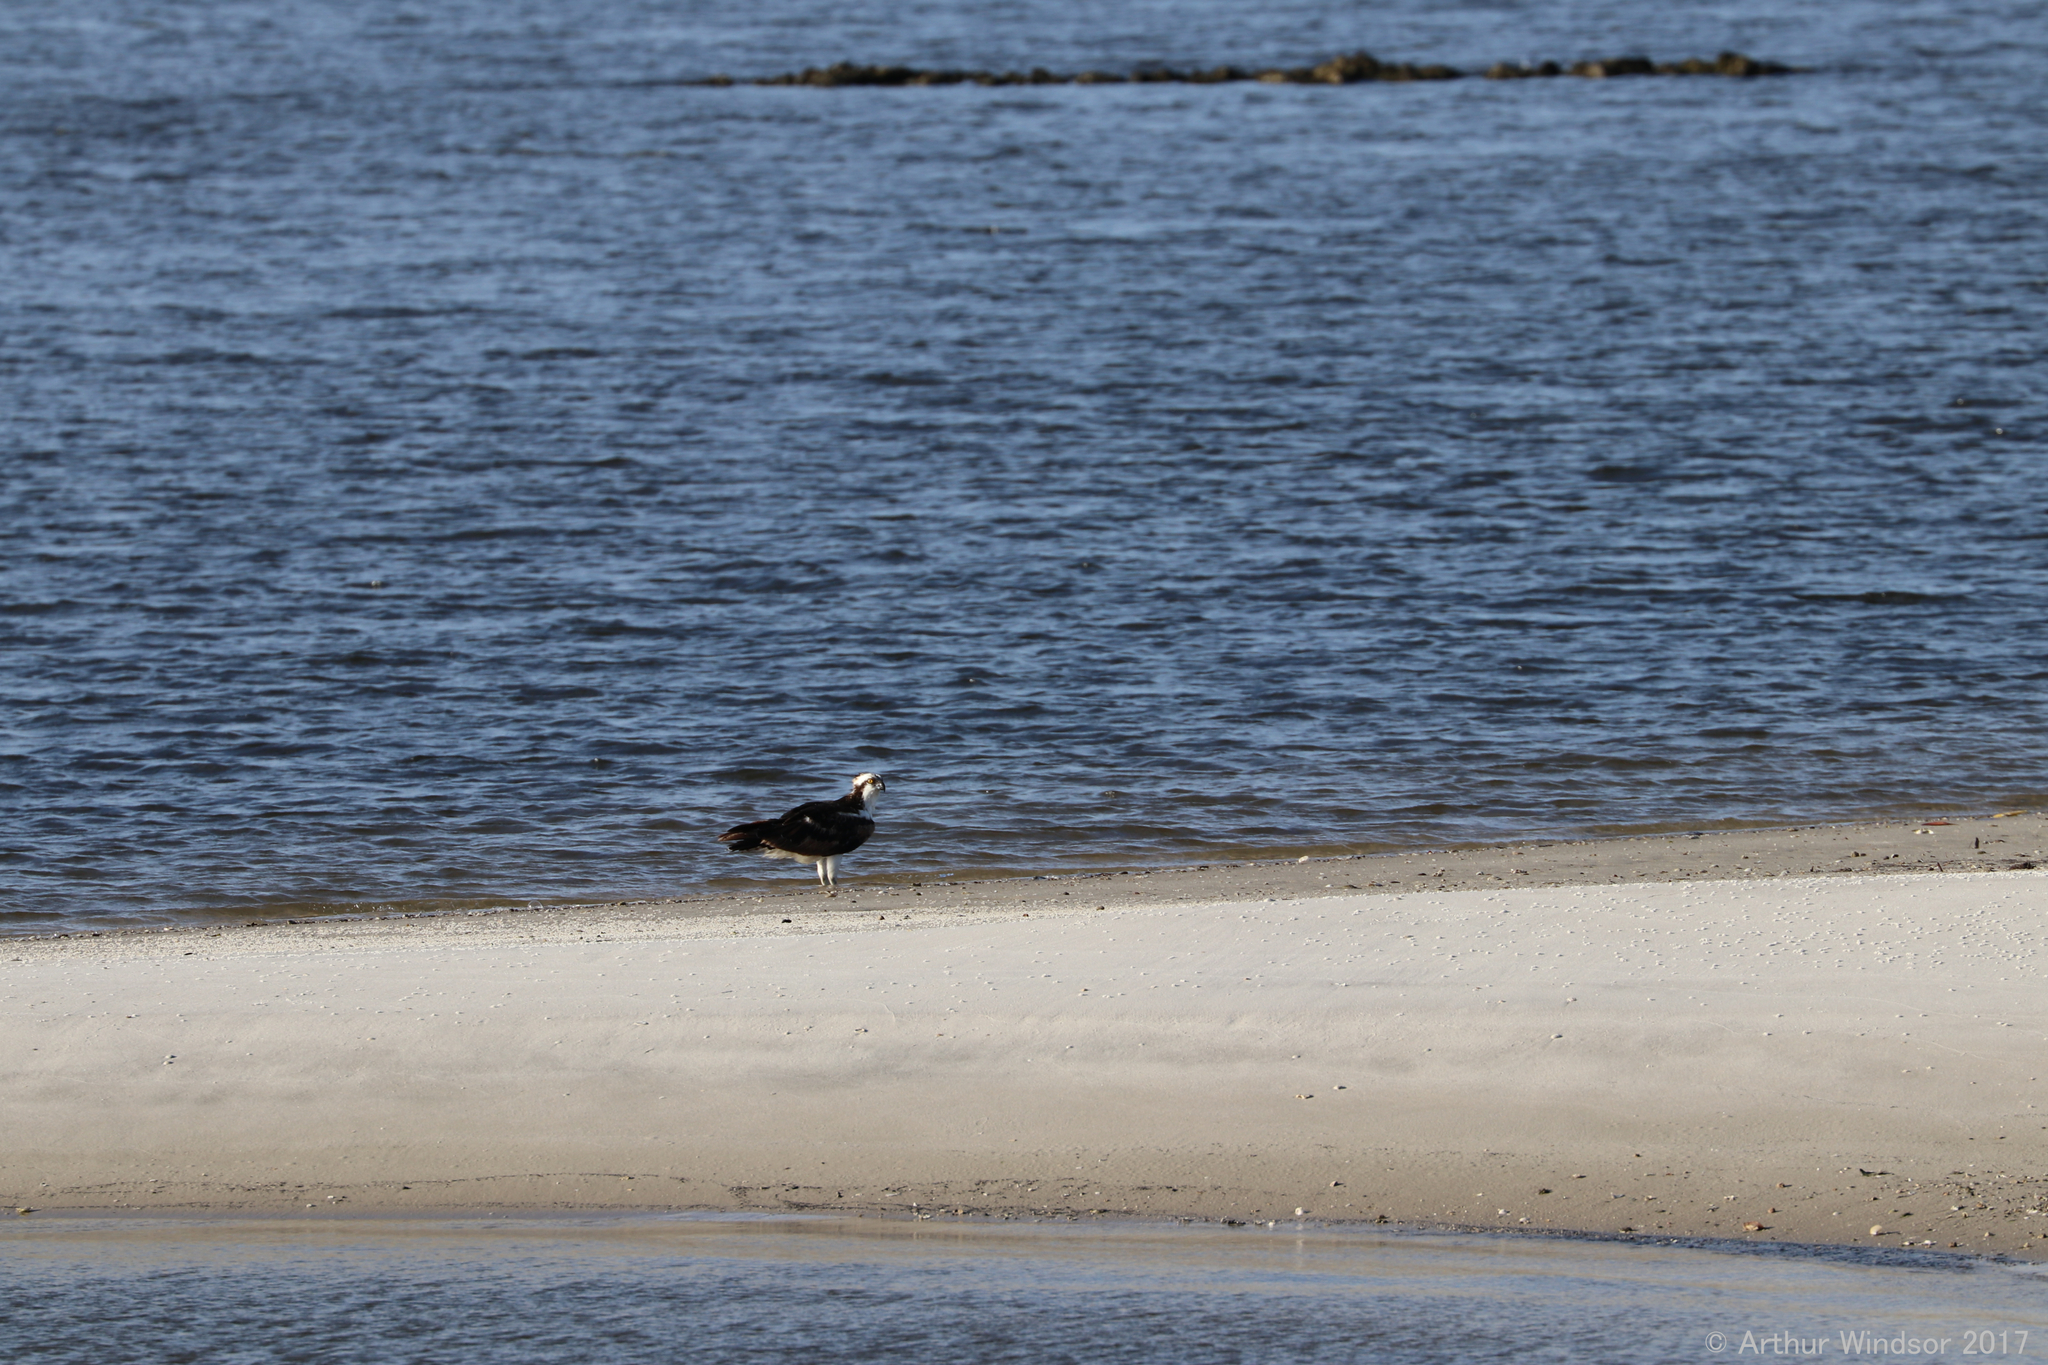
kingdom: Animalia
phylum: Chordata
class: Aves
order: Accipitriformes
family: Pandionidae
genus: Pandion
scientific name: Pandion haliaetus
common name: Osprey
